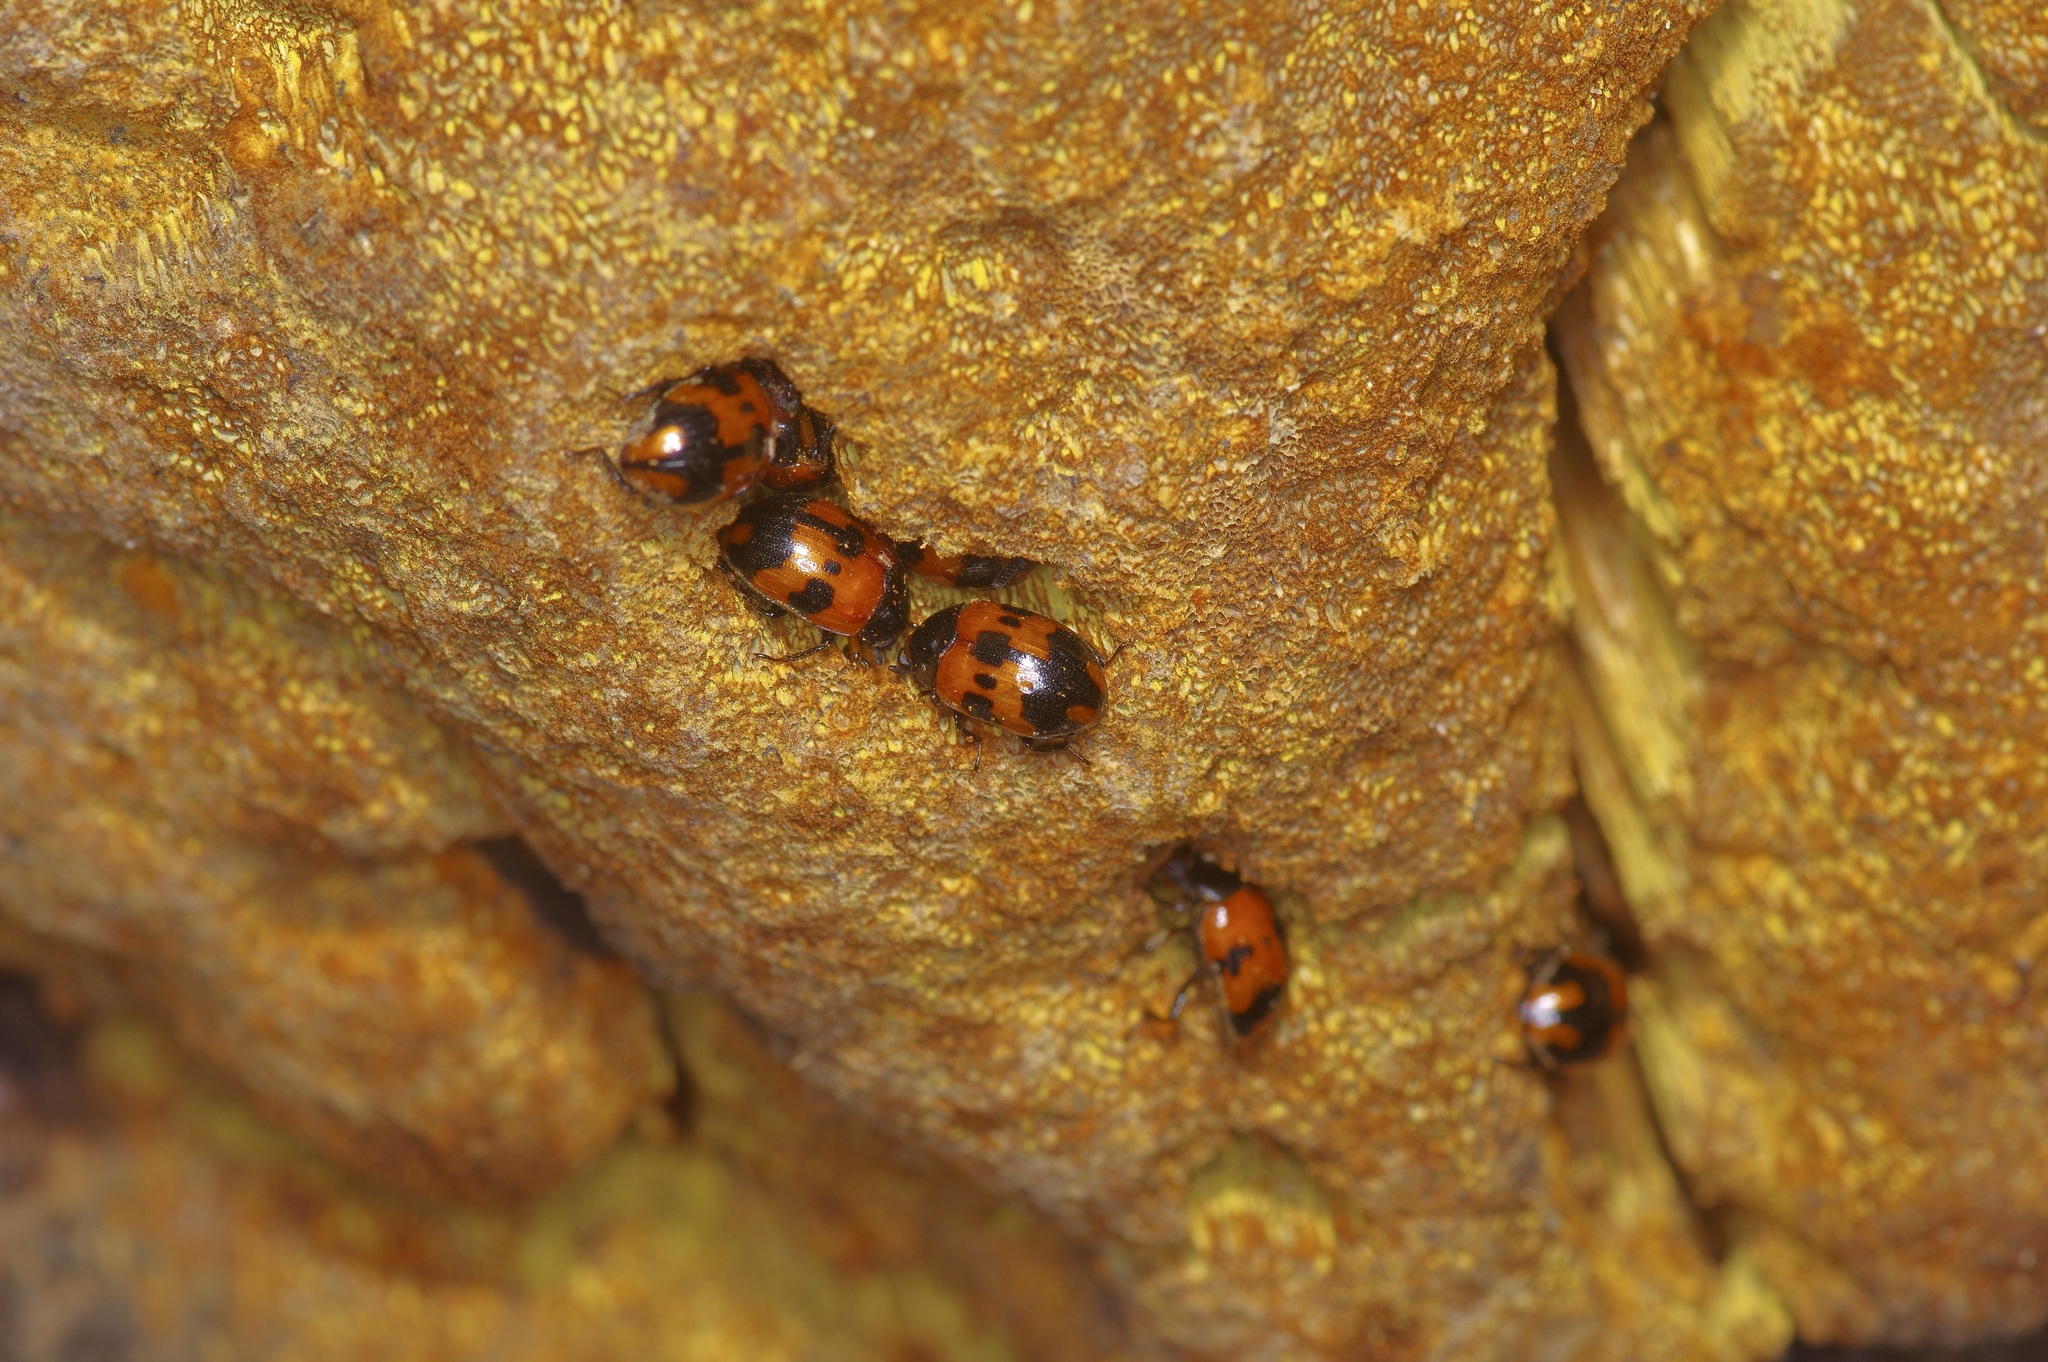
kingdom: Animalia
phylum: Arthropoda
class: Insecta
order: Coleoptera
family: Tenebrionidae
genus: Diaperis
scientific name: Diaperis nigronotata
